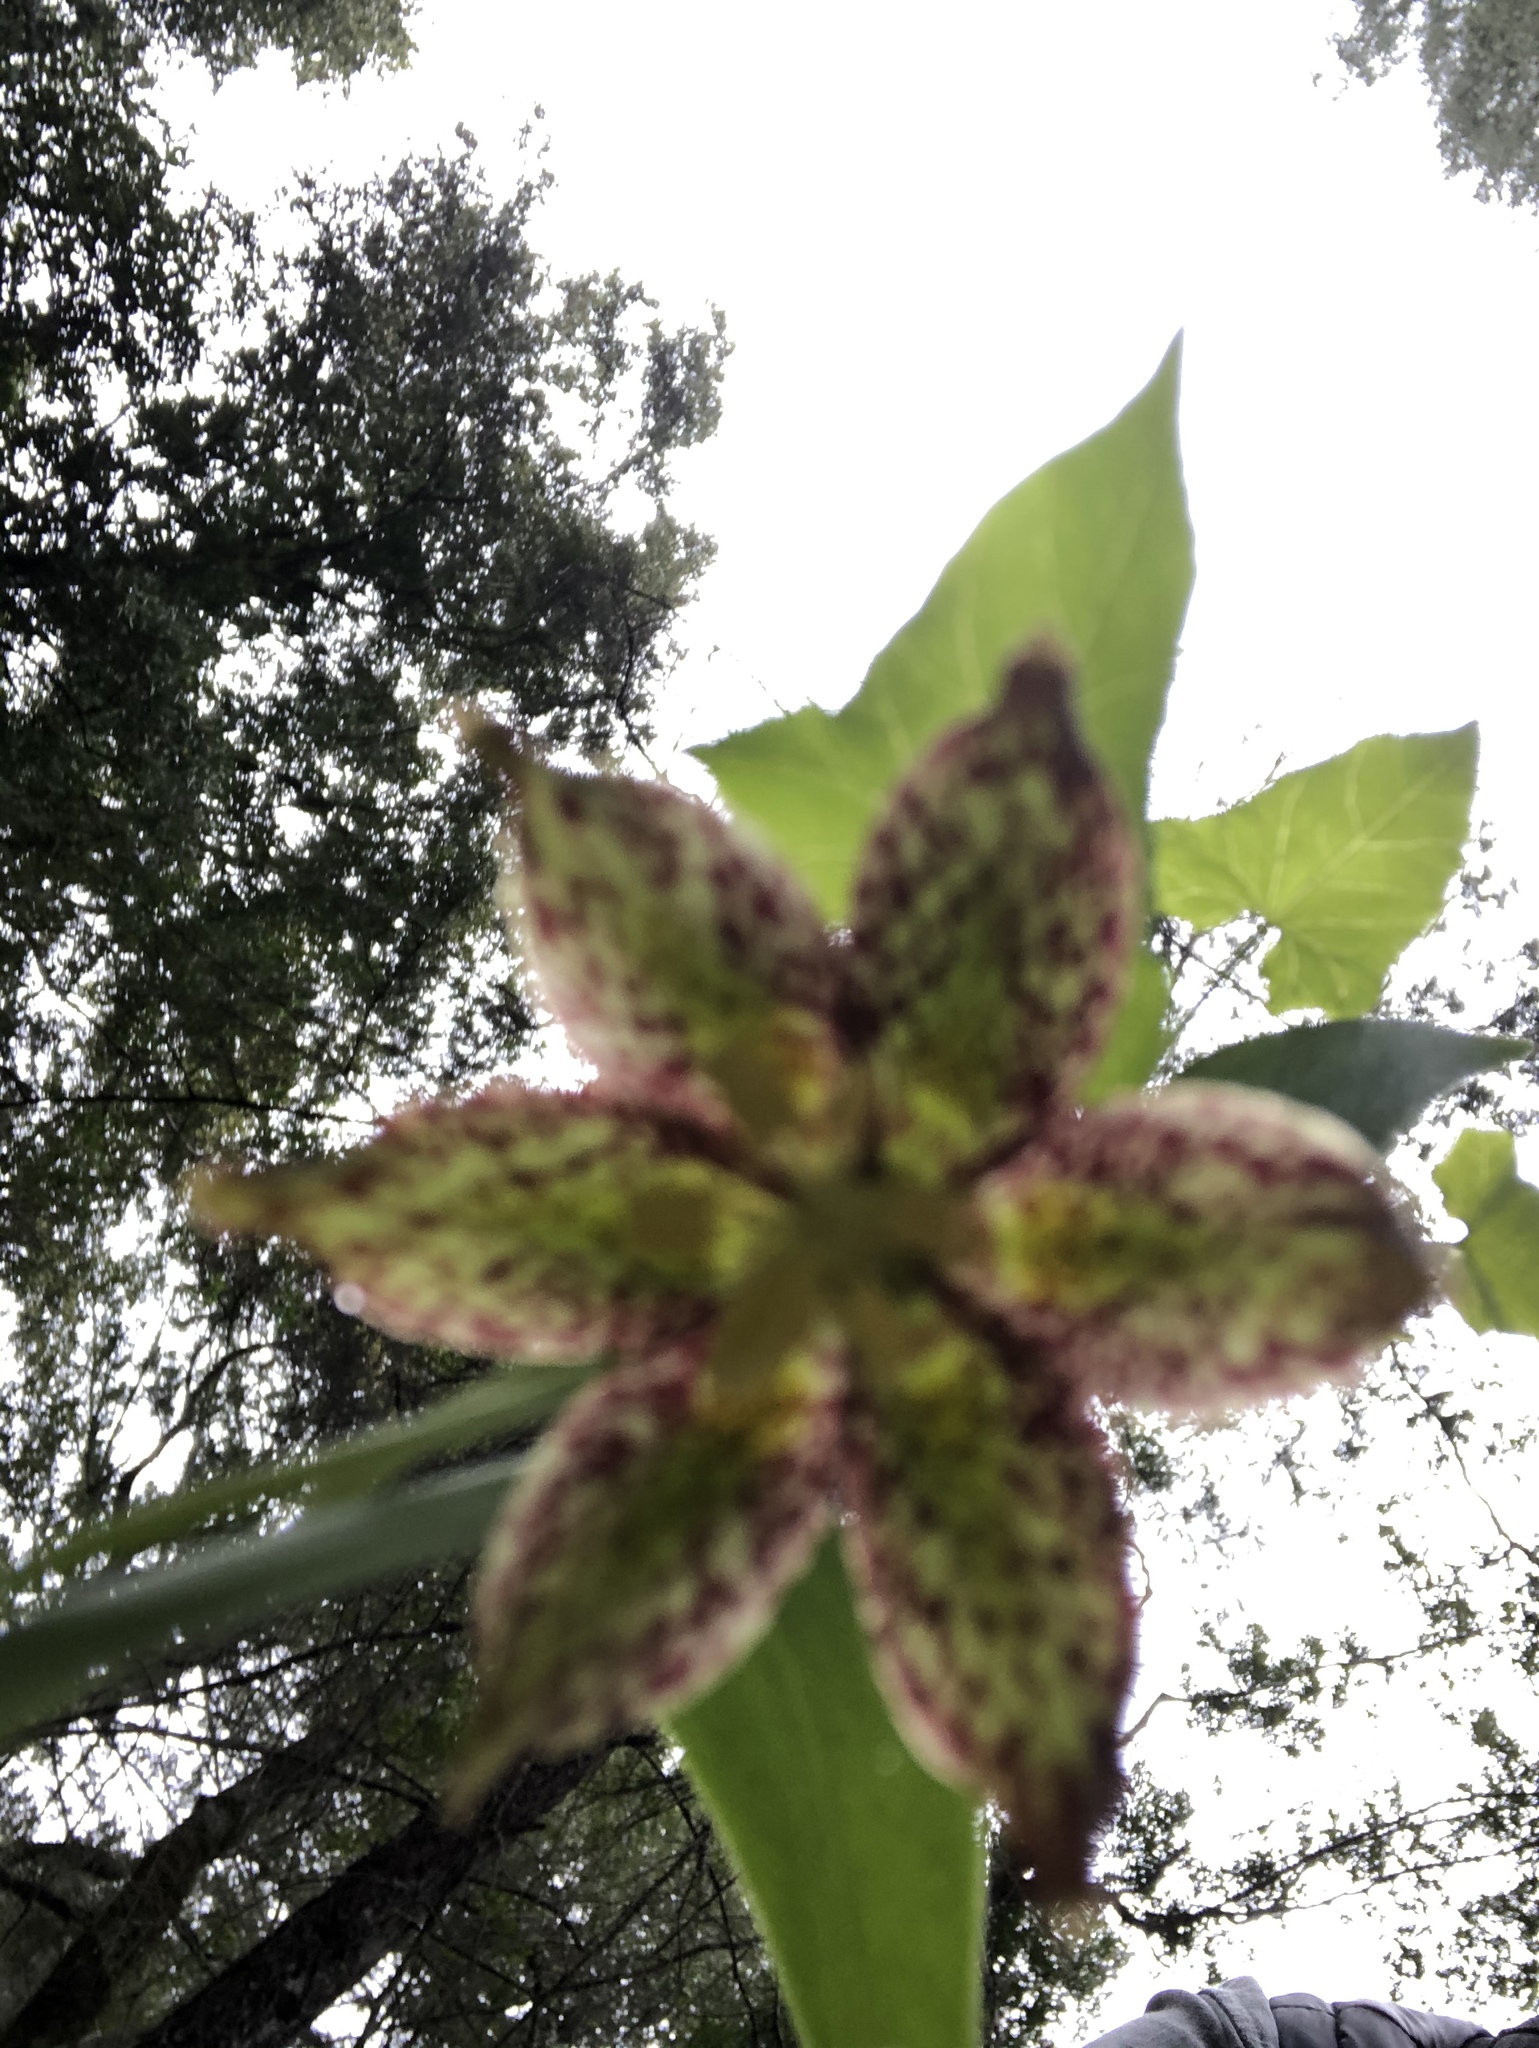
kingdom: Plantae
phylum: Tracheophyta
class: Liliopsida
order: Liliales
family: Liliaceae
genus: Fritillaria
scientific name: Fritillaria affinis
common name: Ojai fritillary
